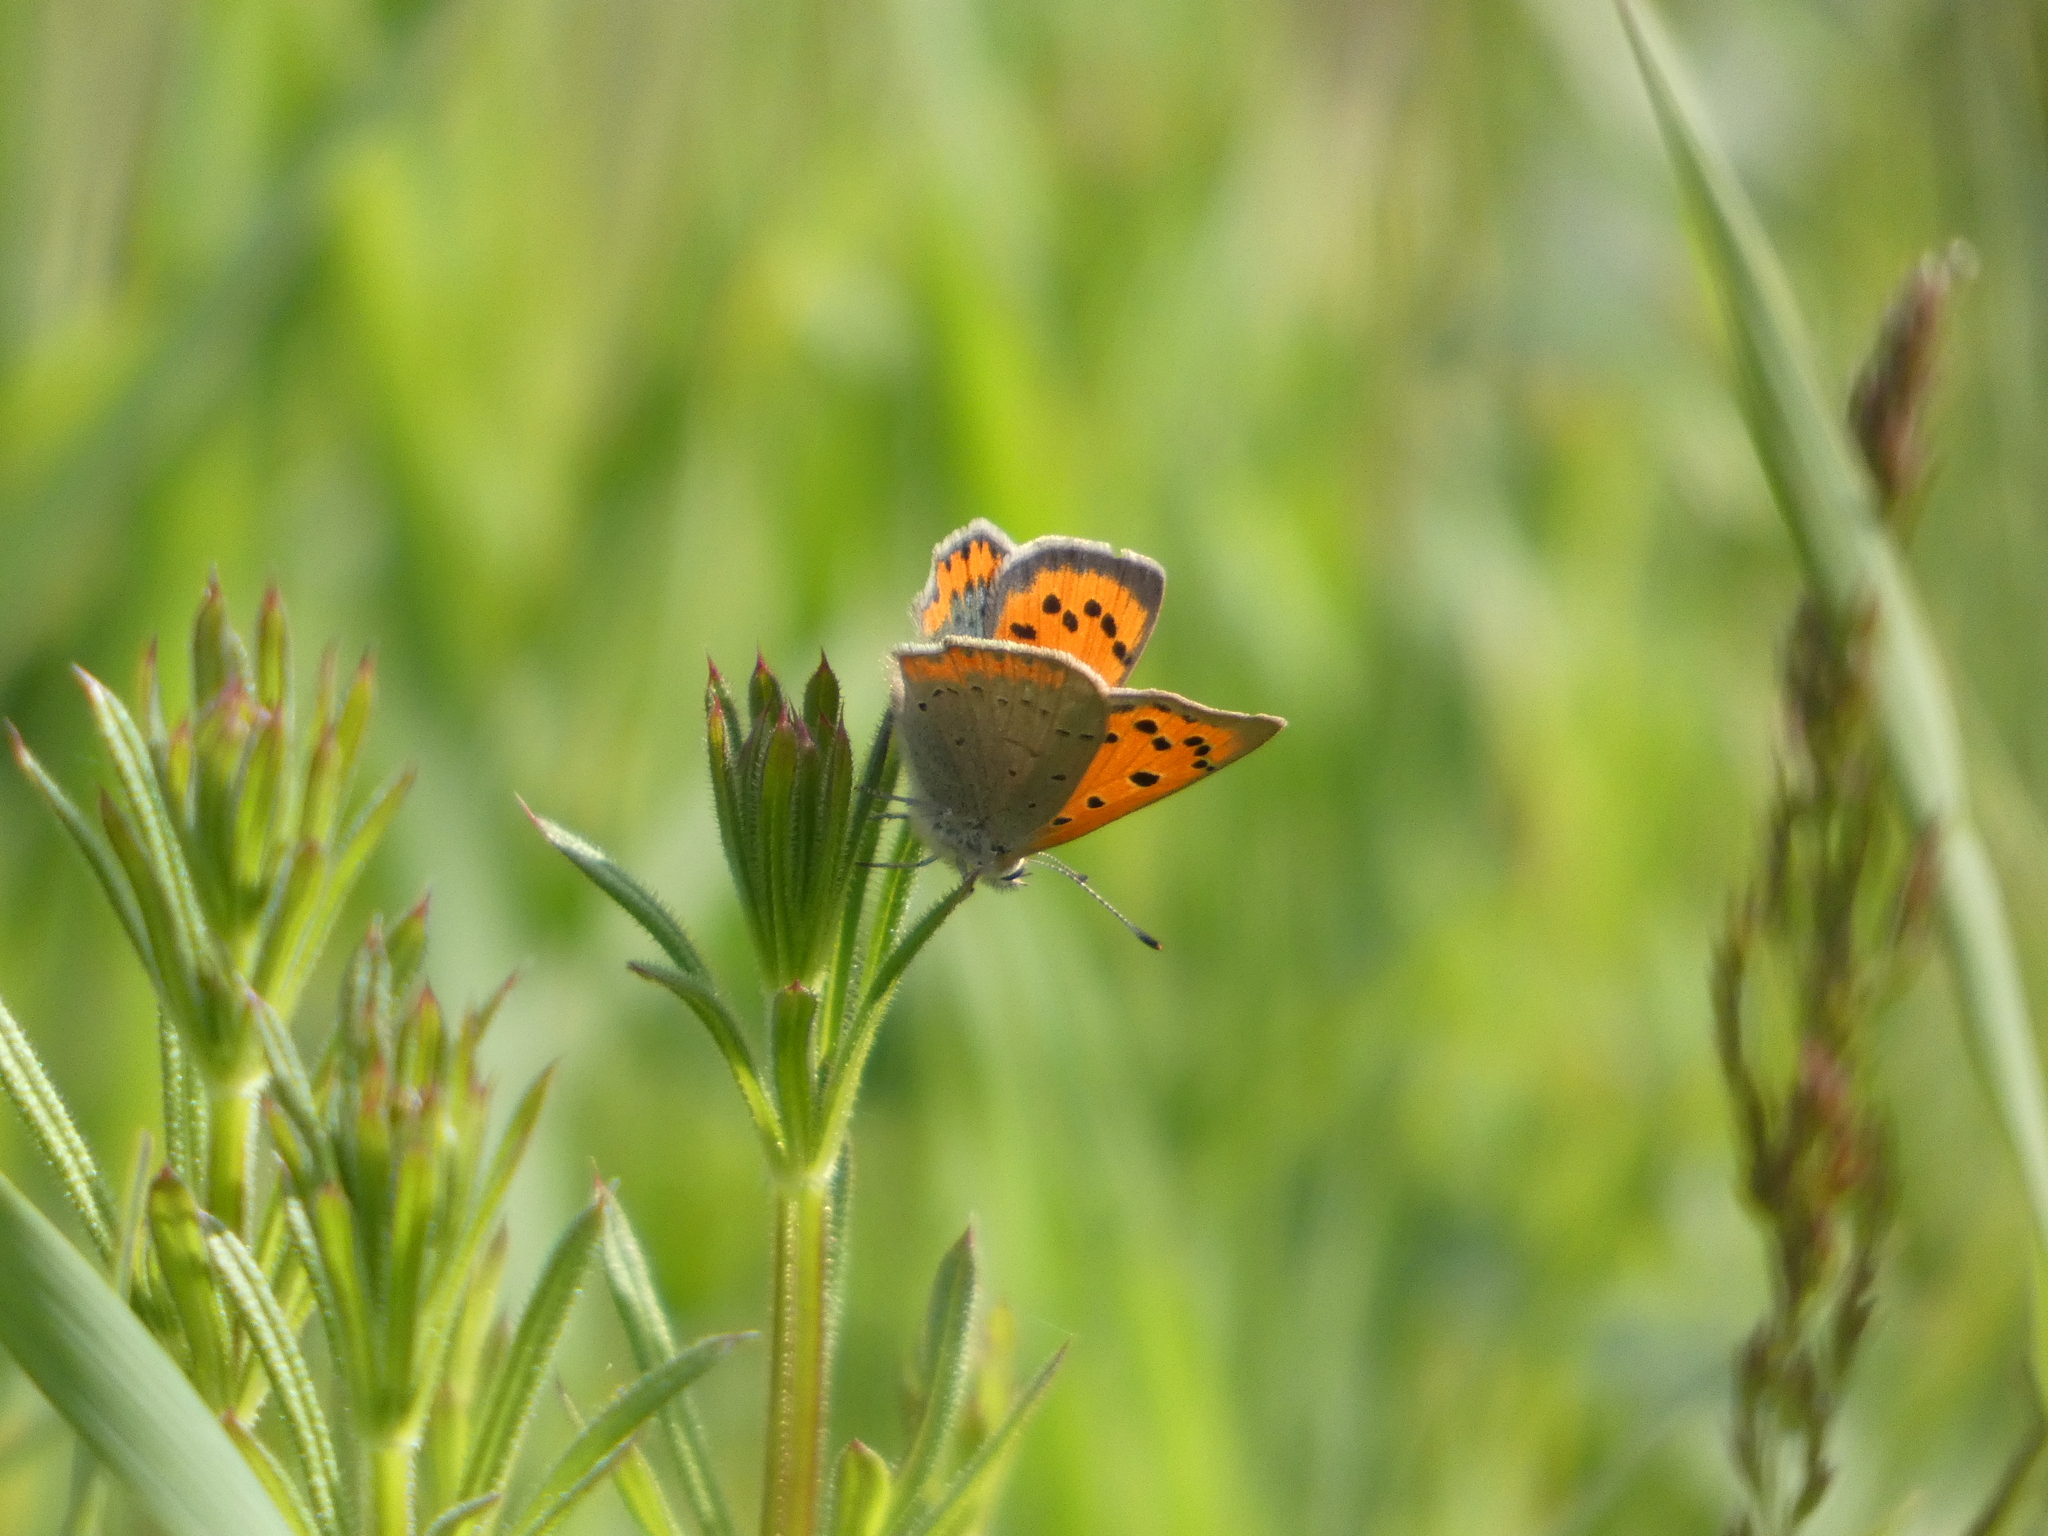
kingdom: Animalia
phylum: Arthropoda
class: Insecta
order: Lepidoptera
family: Lycaenidae
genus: Lycaena
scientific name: Lycaena phlaeas
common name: Small copper
